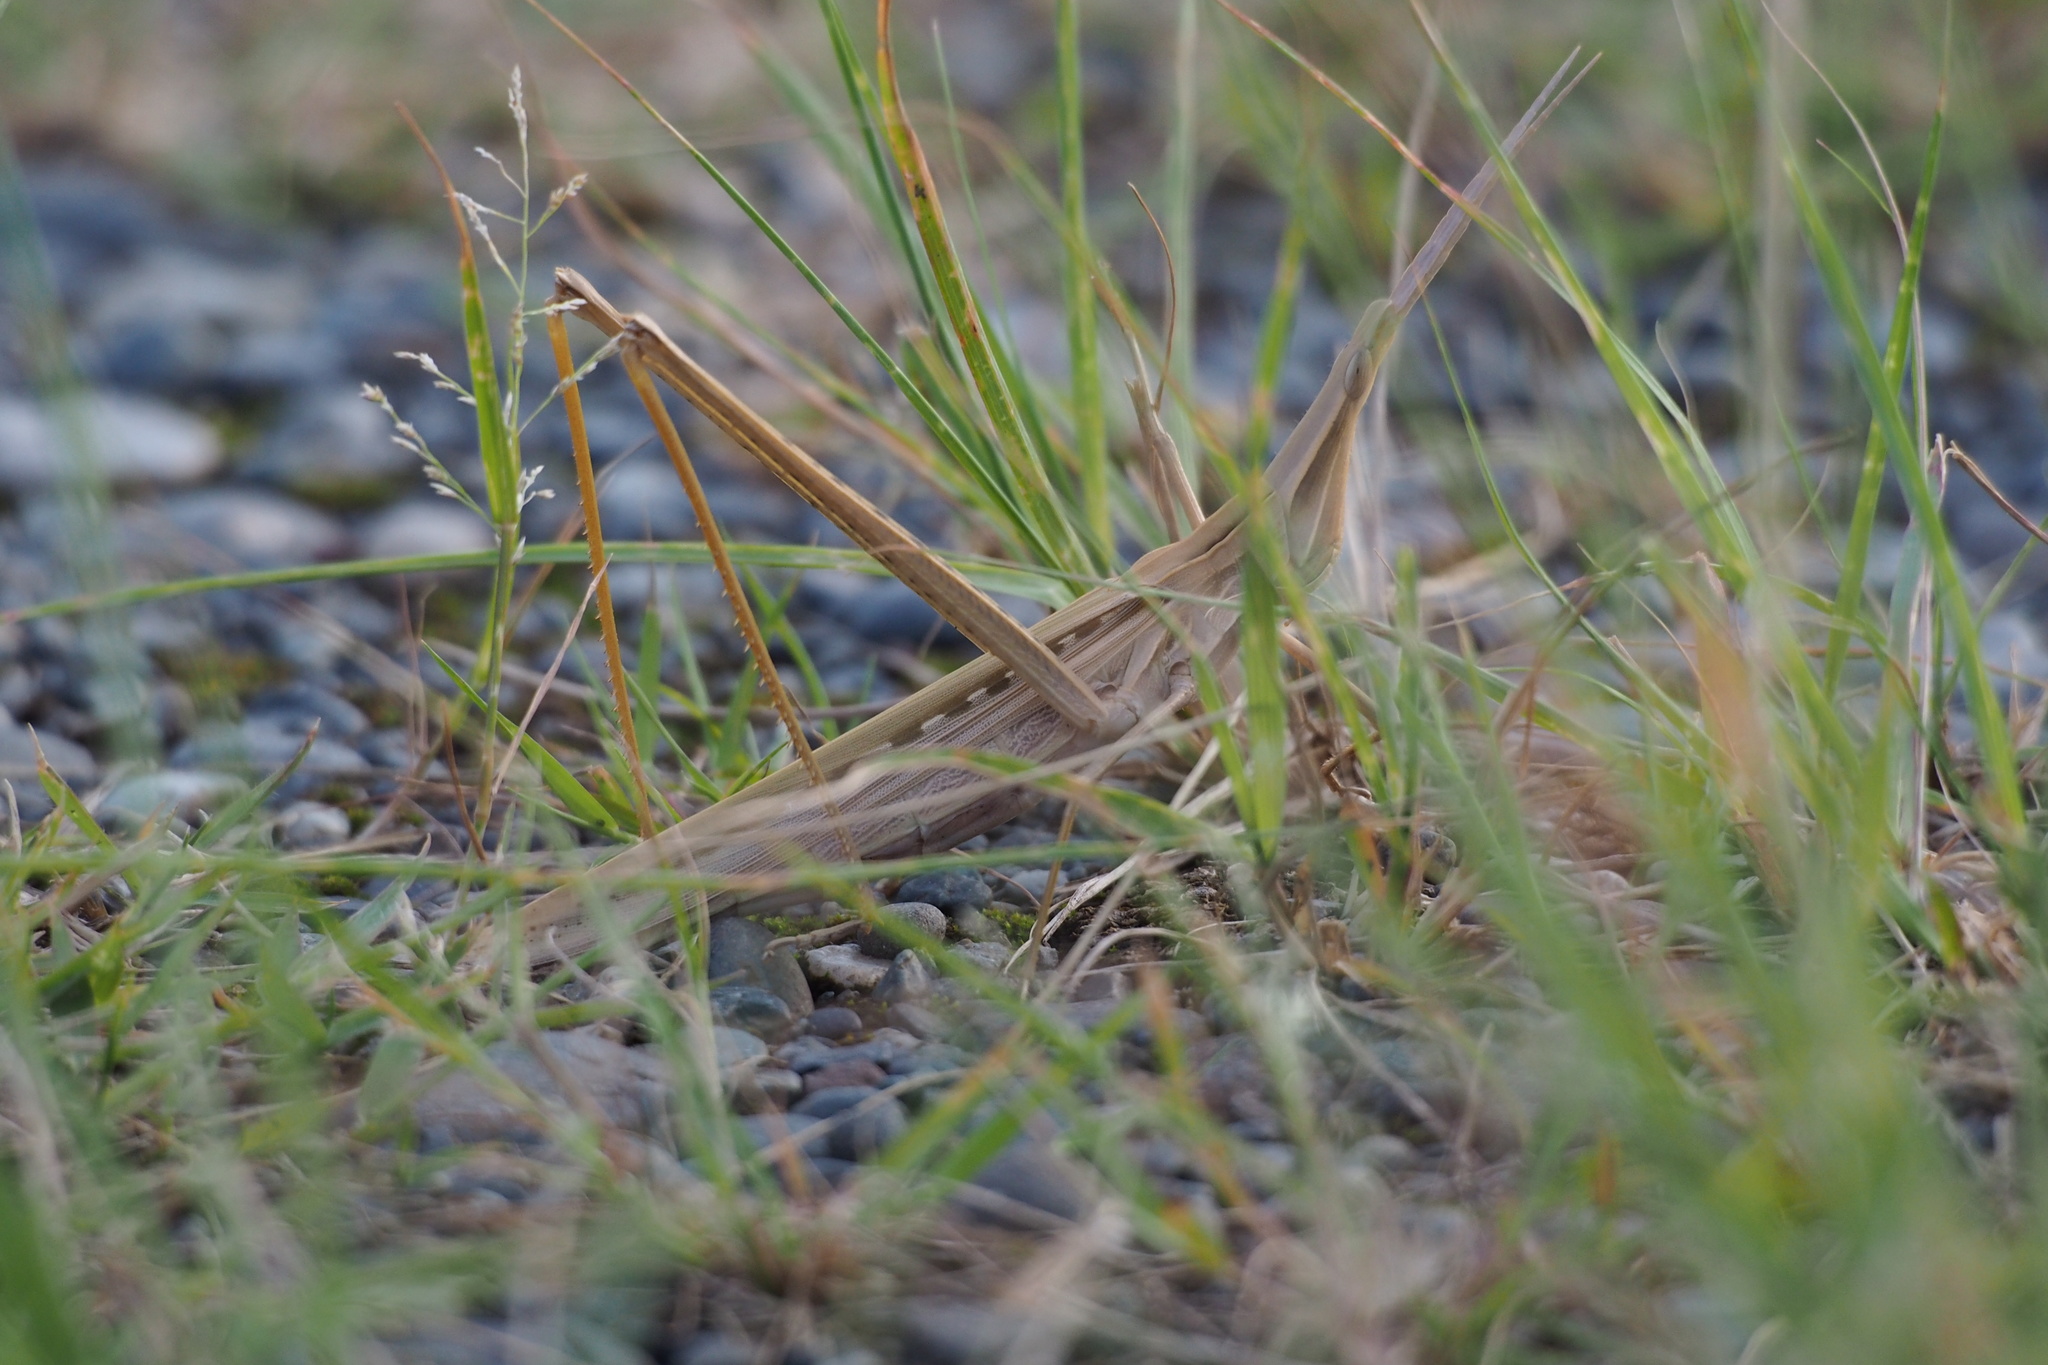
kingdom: Animalia
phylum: Arthropoda
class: Insecta
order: Orthoptera
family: Acrididae
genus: Acrida
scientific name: Acrida cinerea
